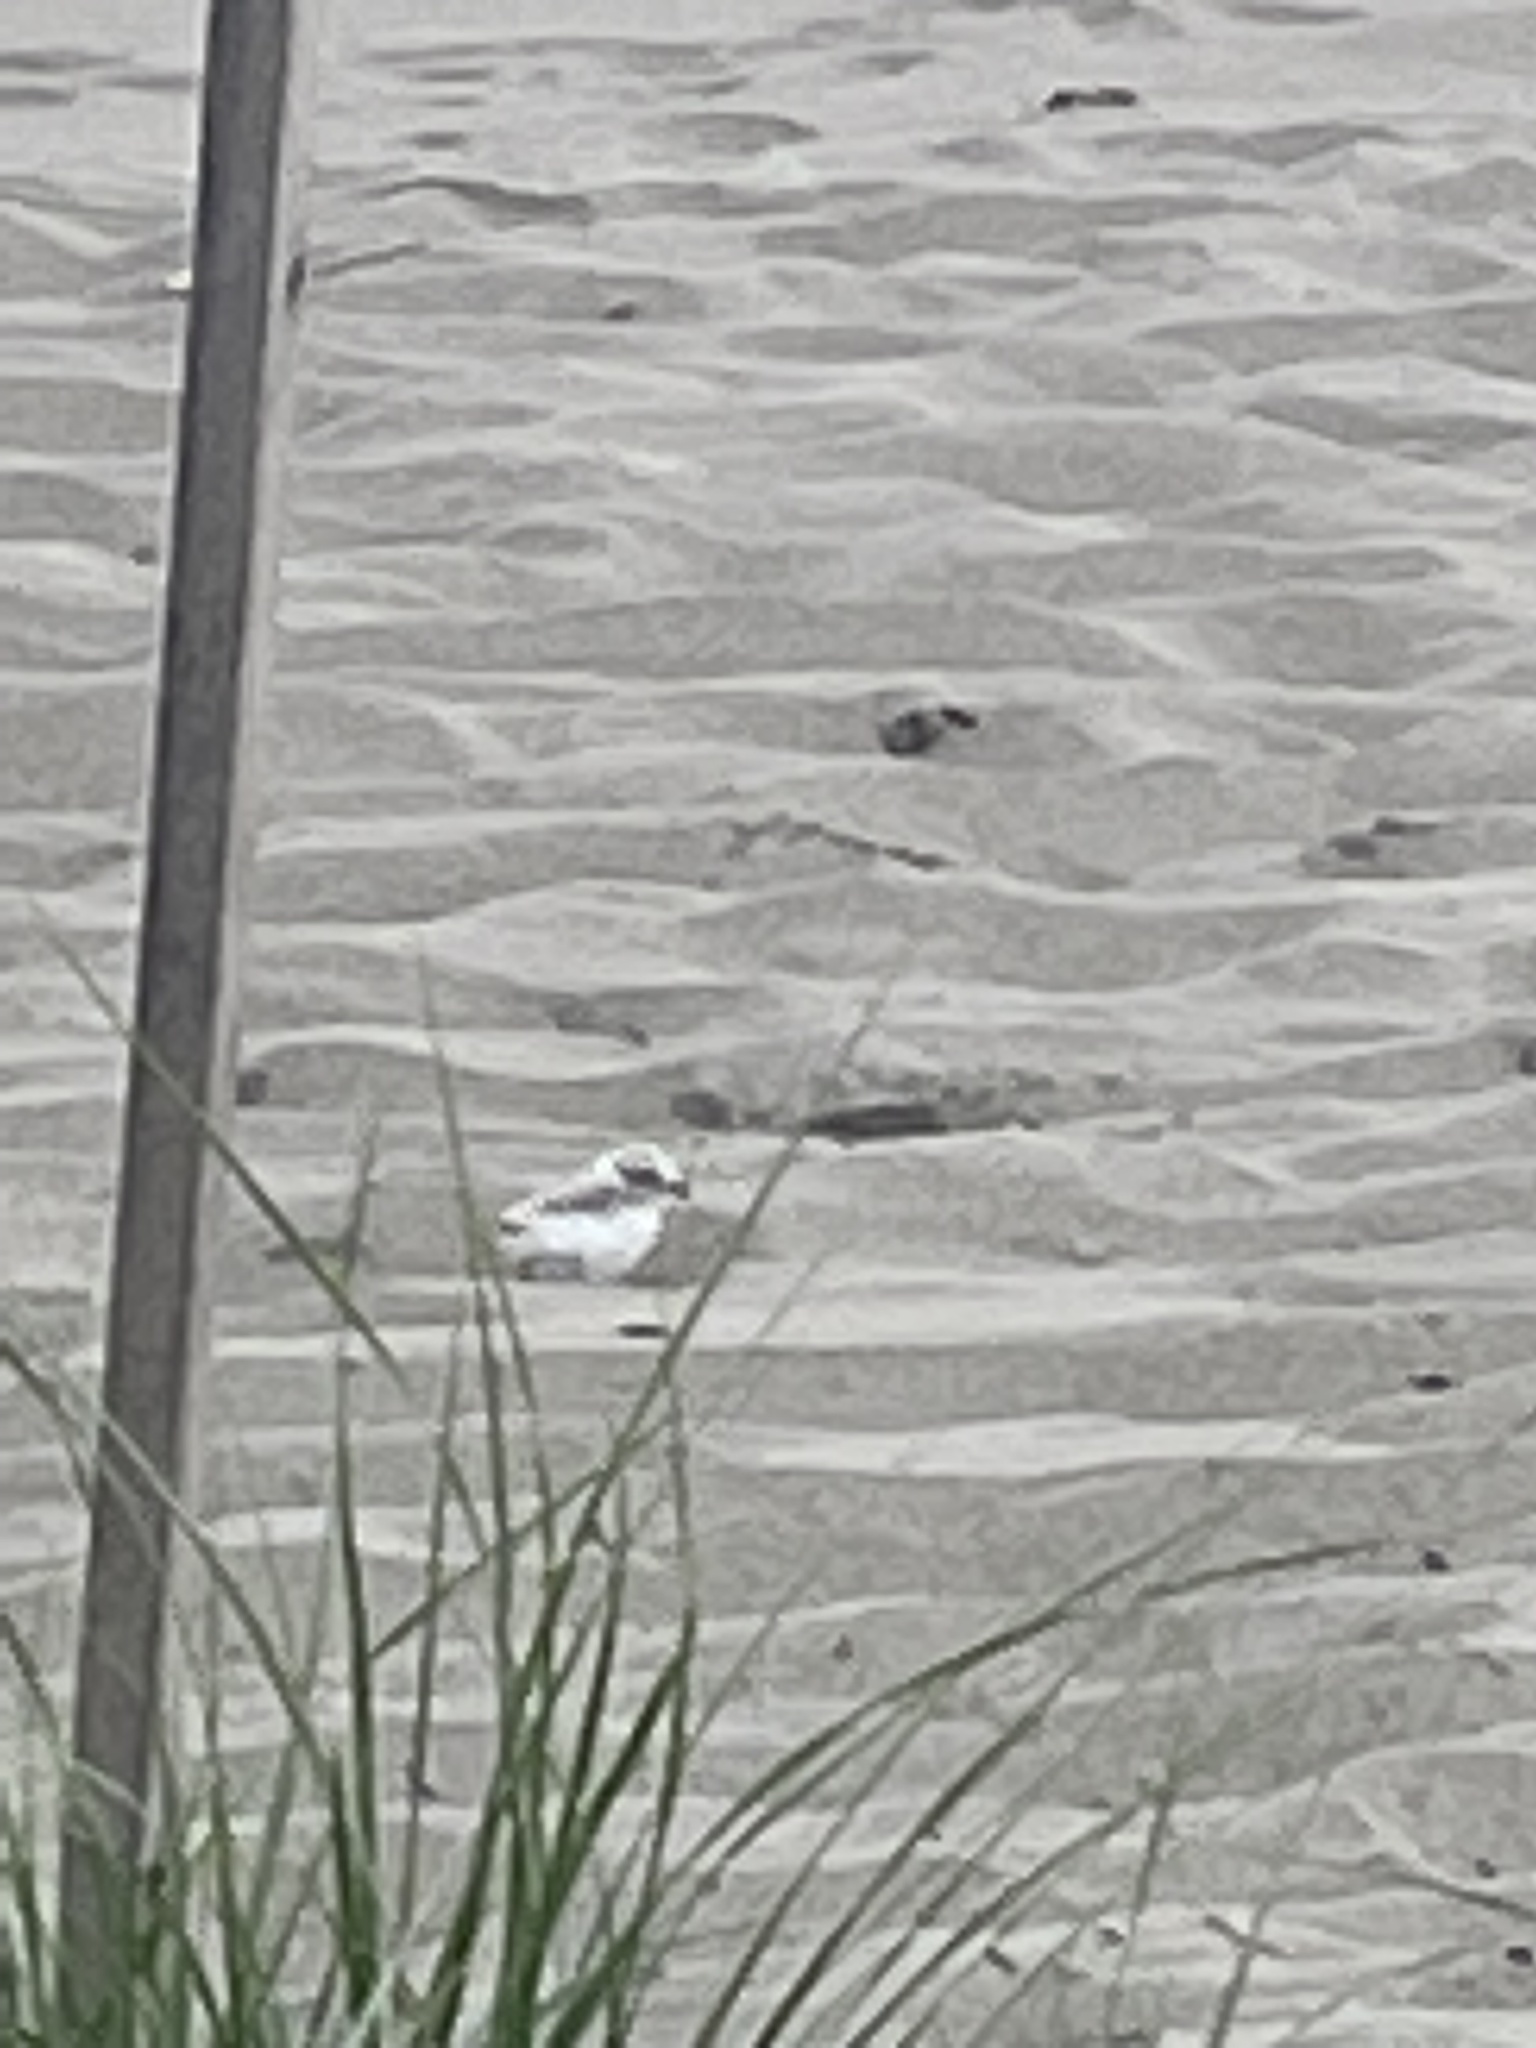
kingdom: Animalia
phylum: Chordata
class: Aves
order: Charadriiformes
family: Charadriidae
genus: Charadrius
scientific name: Charadrius melodus
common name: Piping plover
